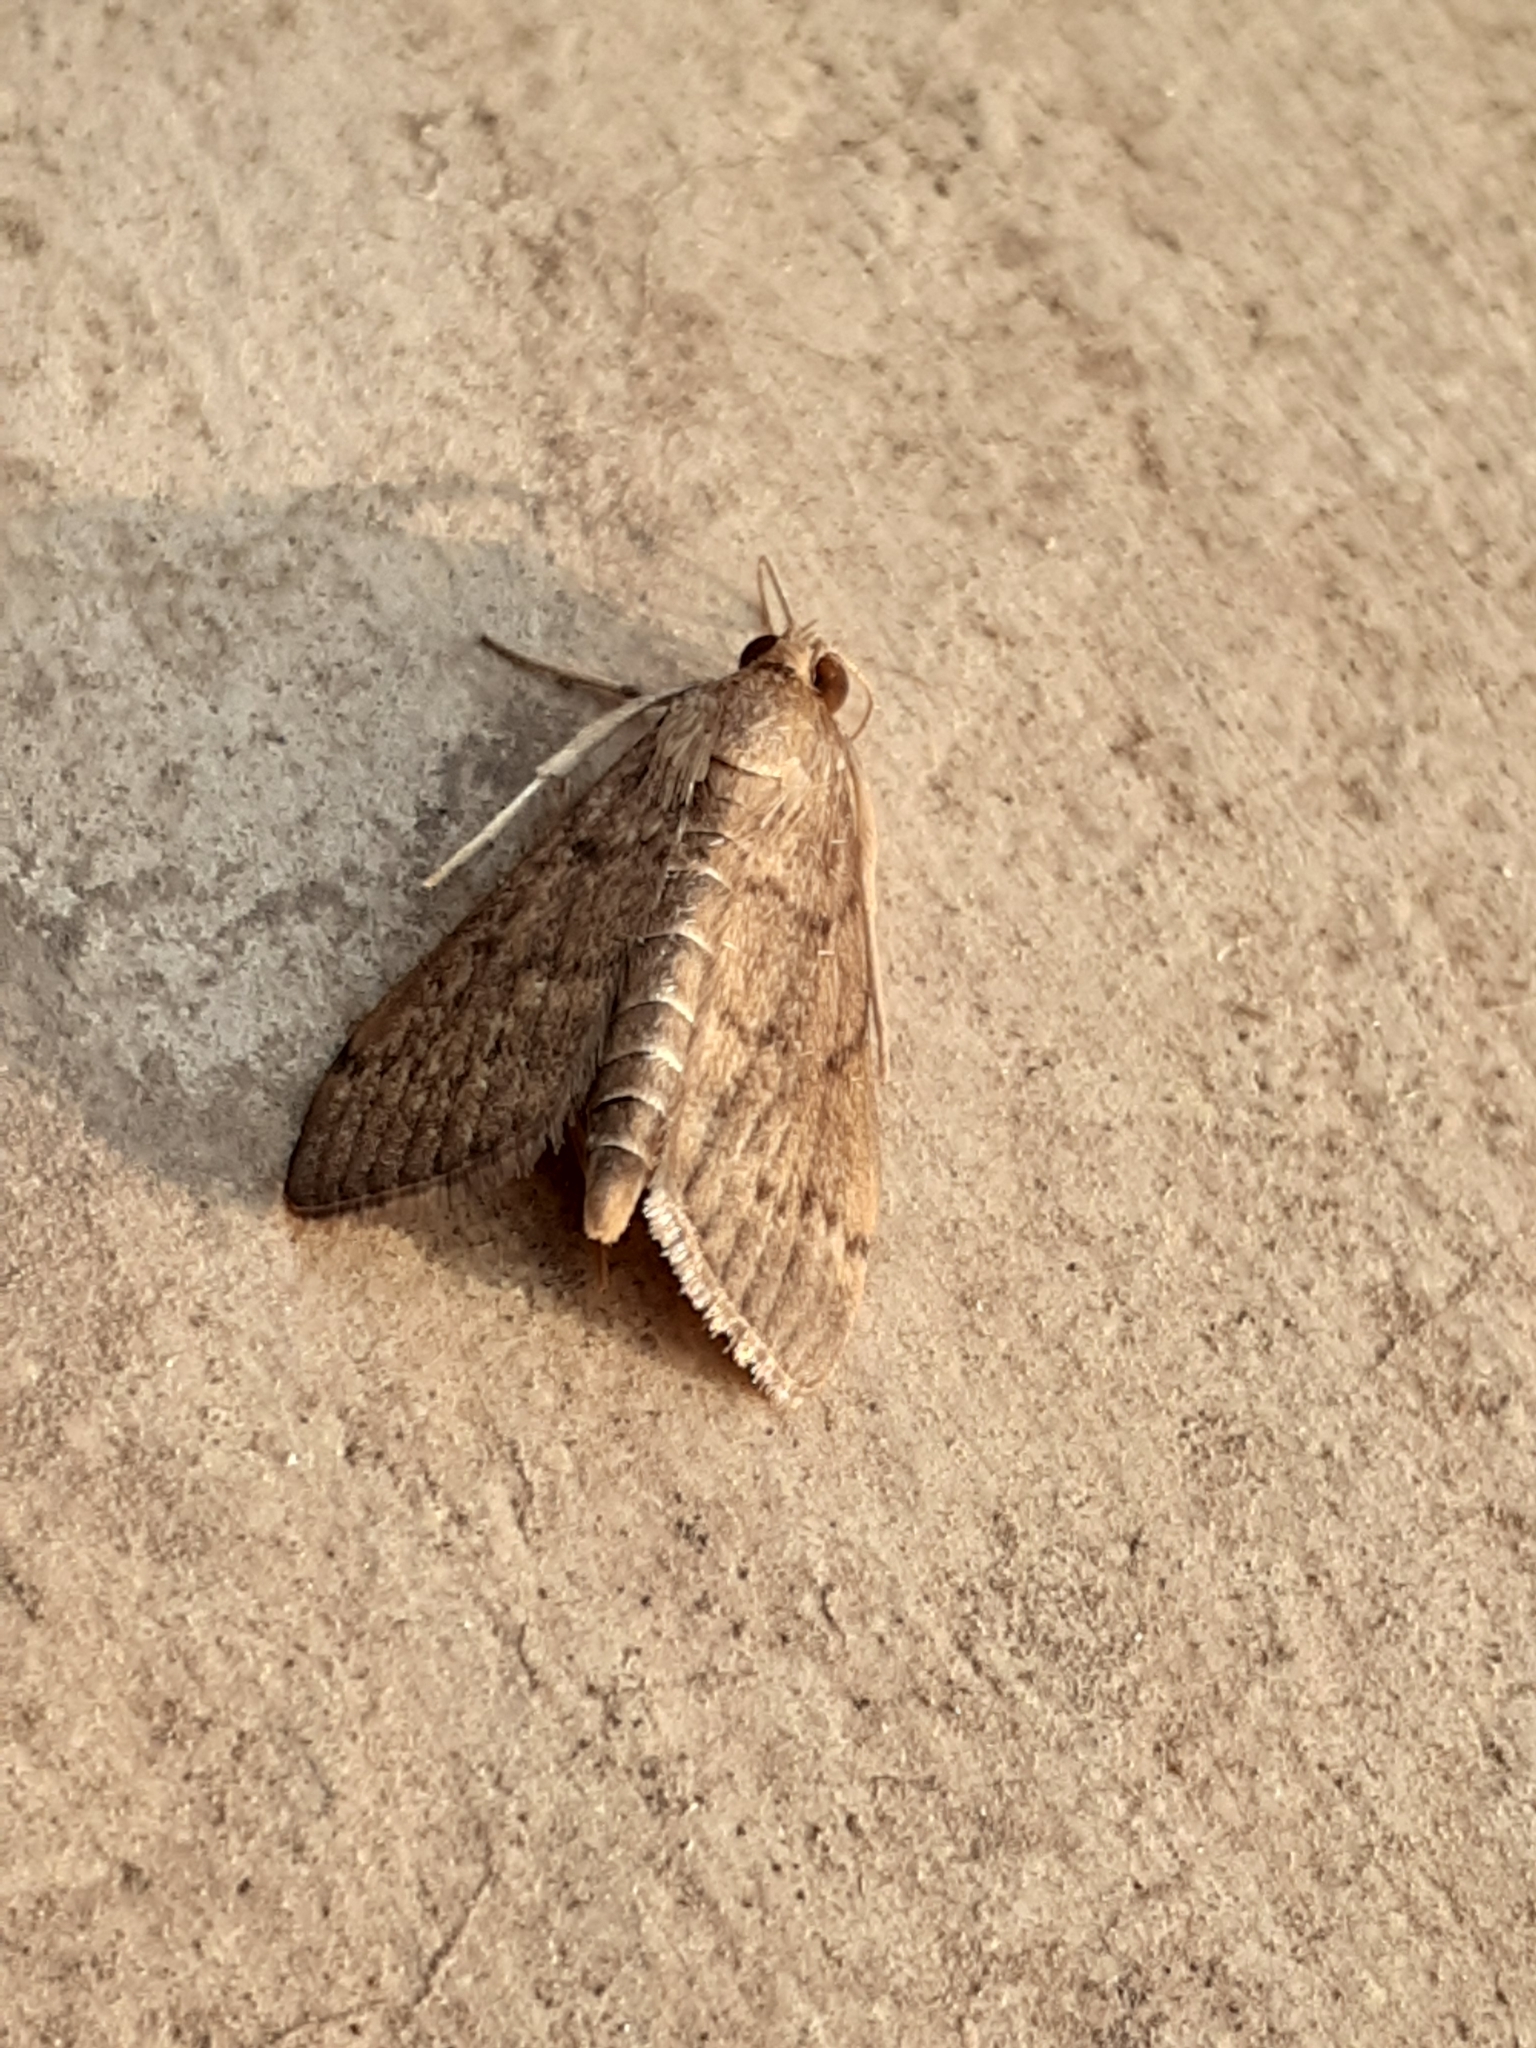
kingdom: Animalia
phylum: Arthropoda
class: Insecta
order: Lepidoptera
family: Crambidae
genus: Herpetogramma
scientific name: Herpetogramma phaeopteralis
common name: Dusky herpetogramma moth
